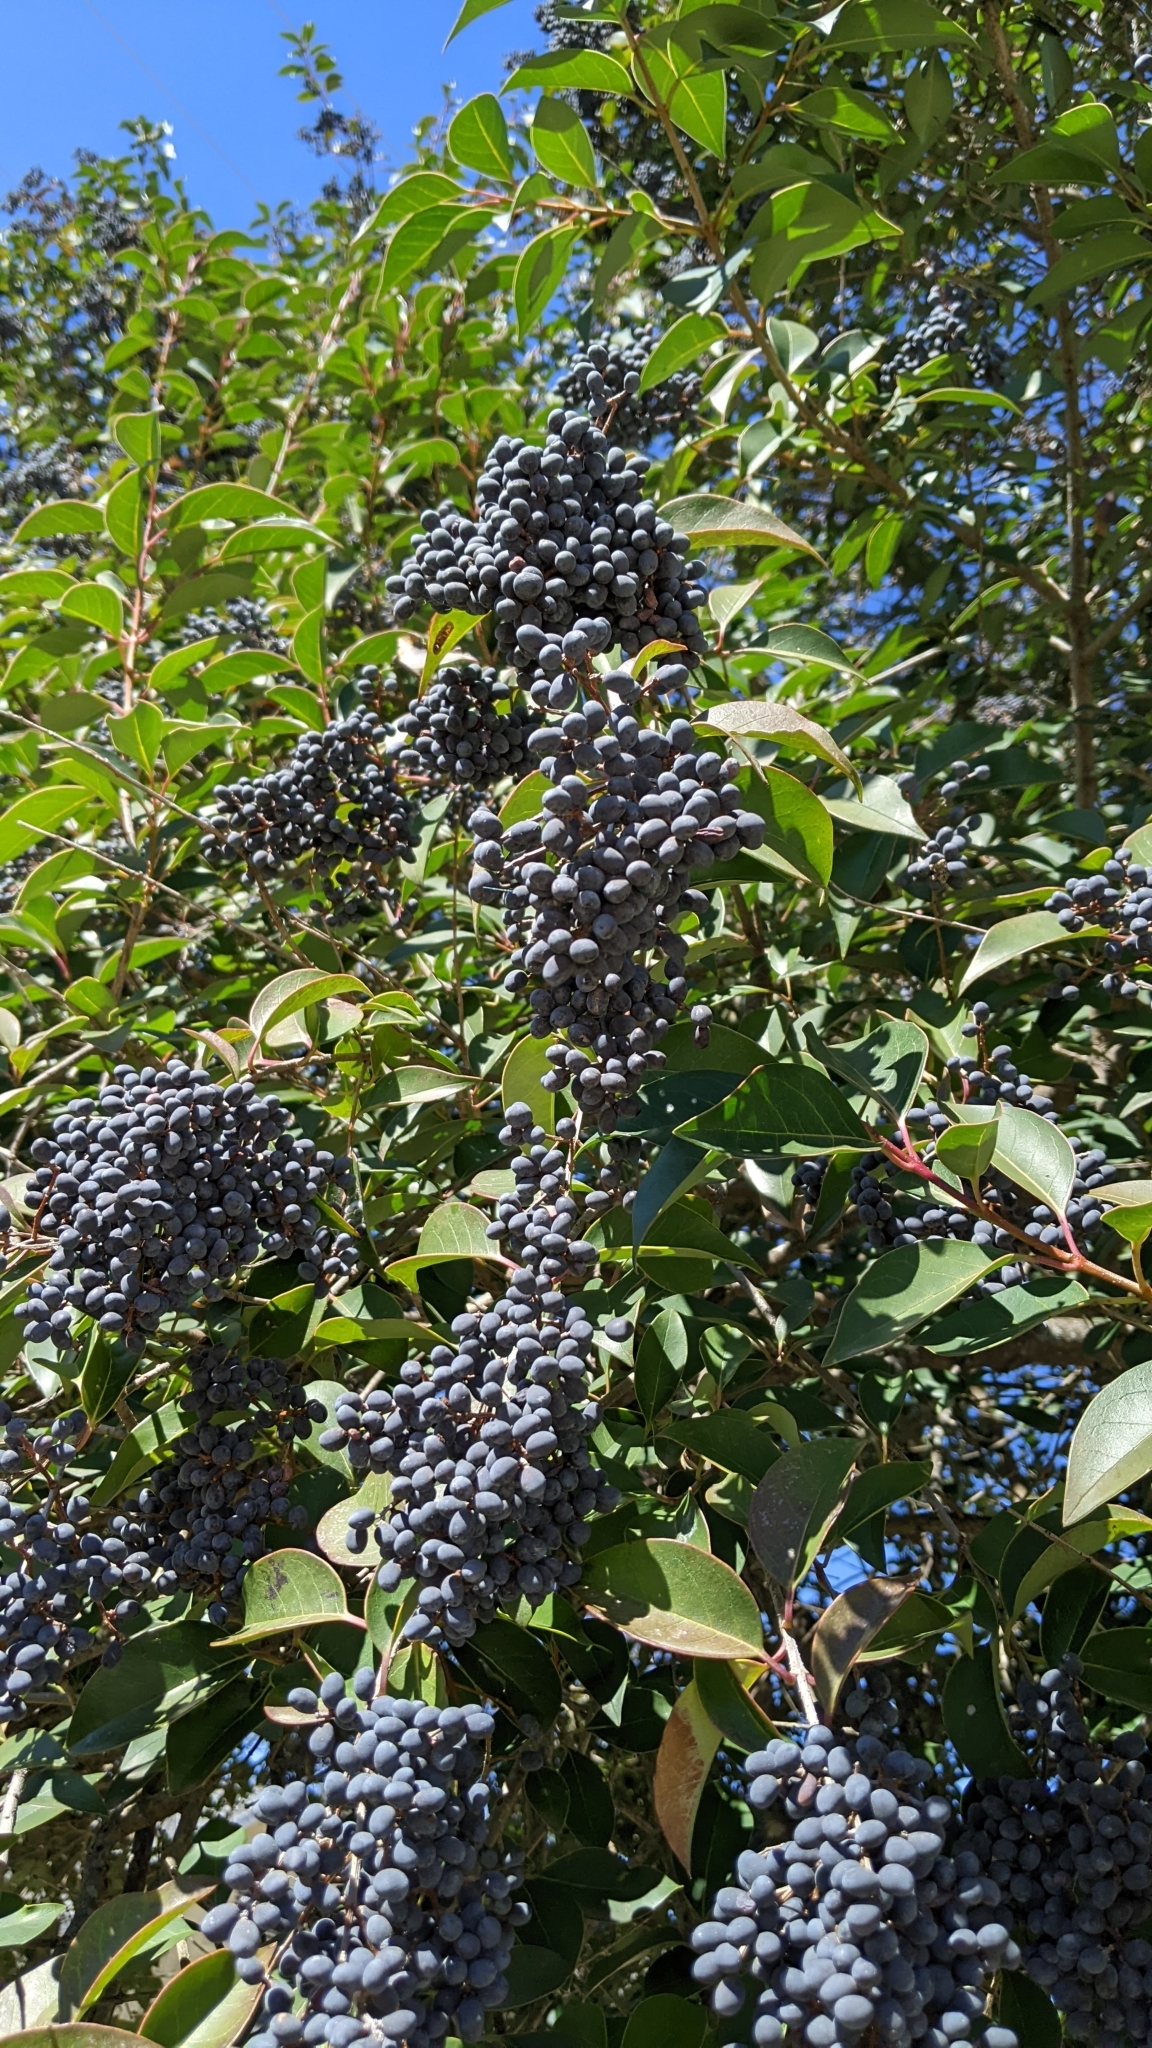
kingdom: Plantae
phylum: Tracheophyta
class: Magnoliopsida
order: Lamiales
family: Oleaceae
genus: Ligustrum
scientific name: Ligustrum lucidum
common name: Glossy privet
